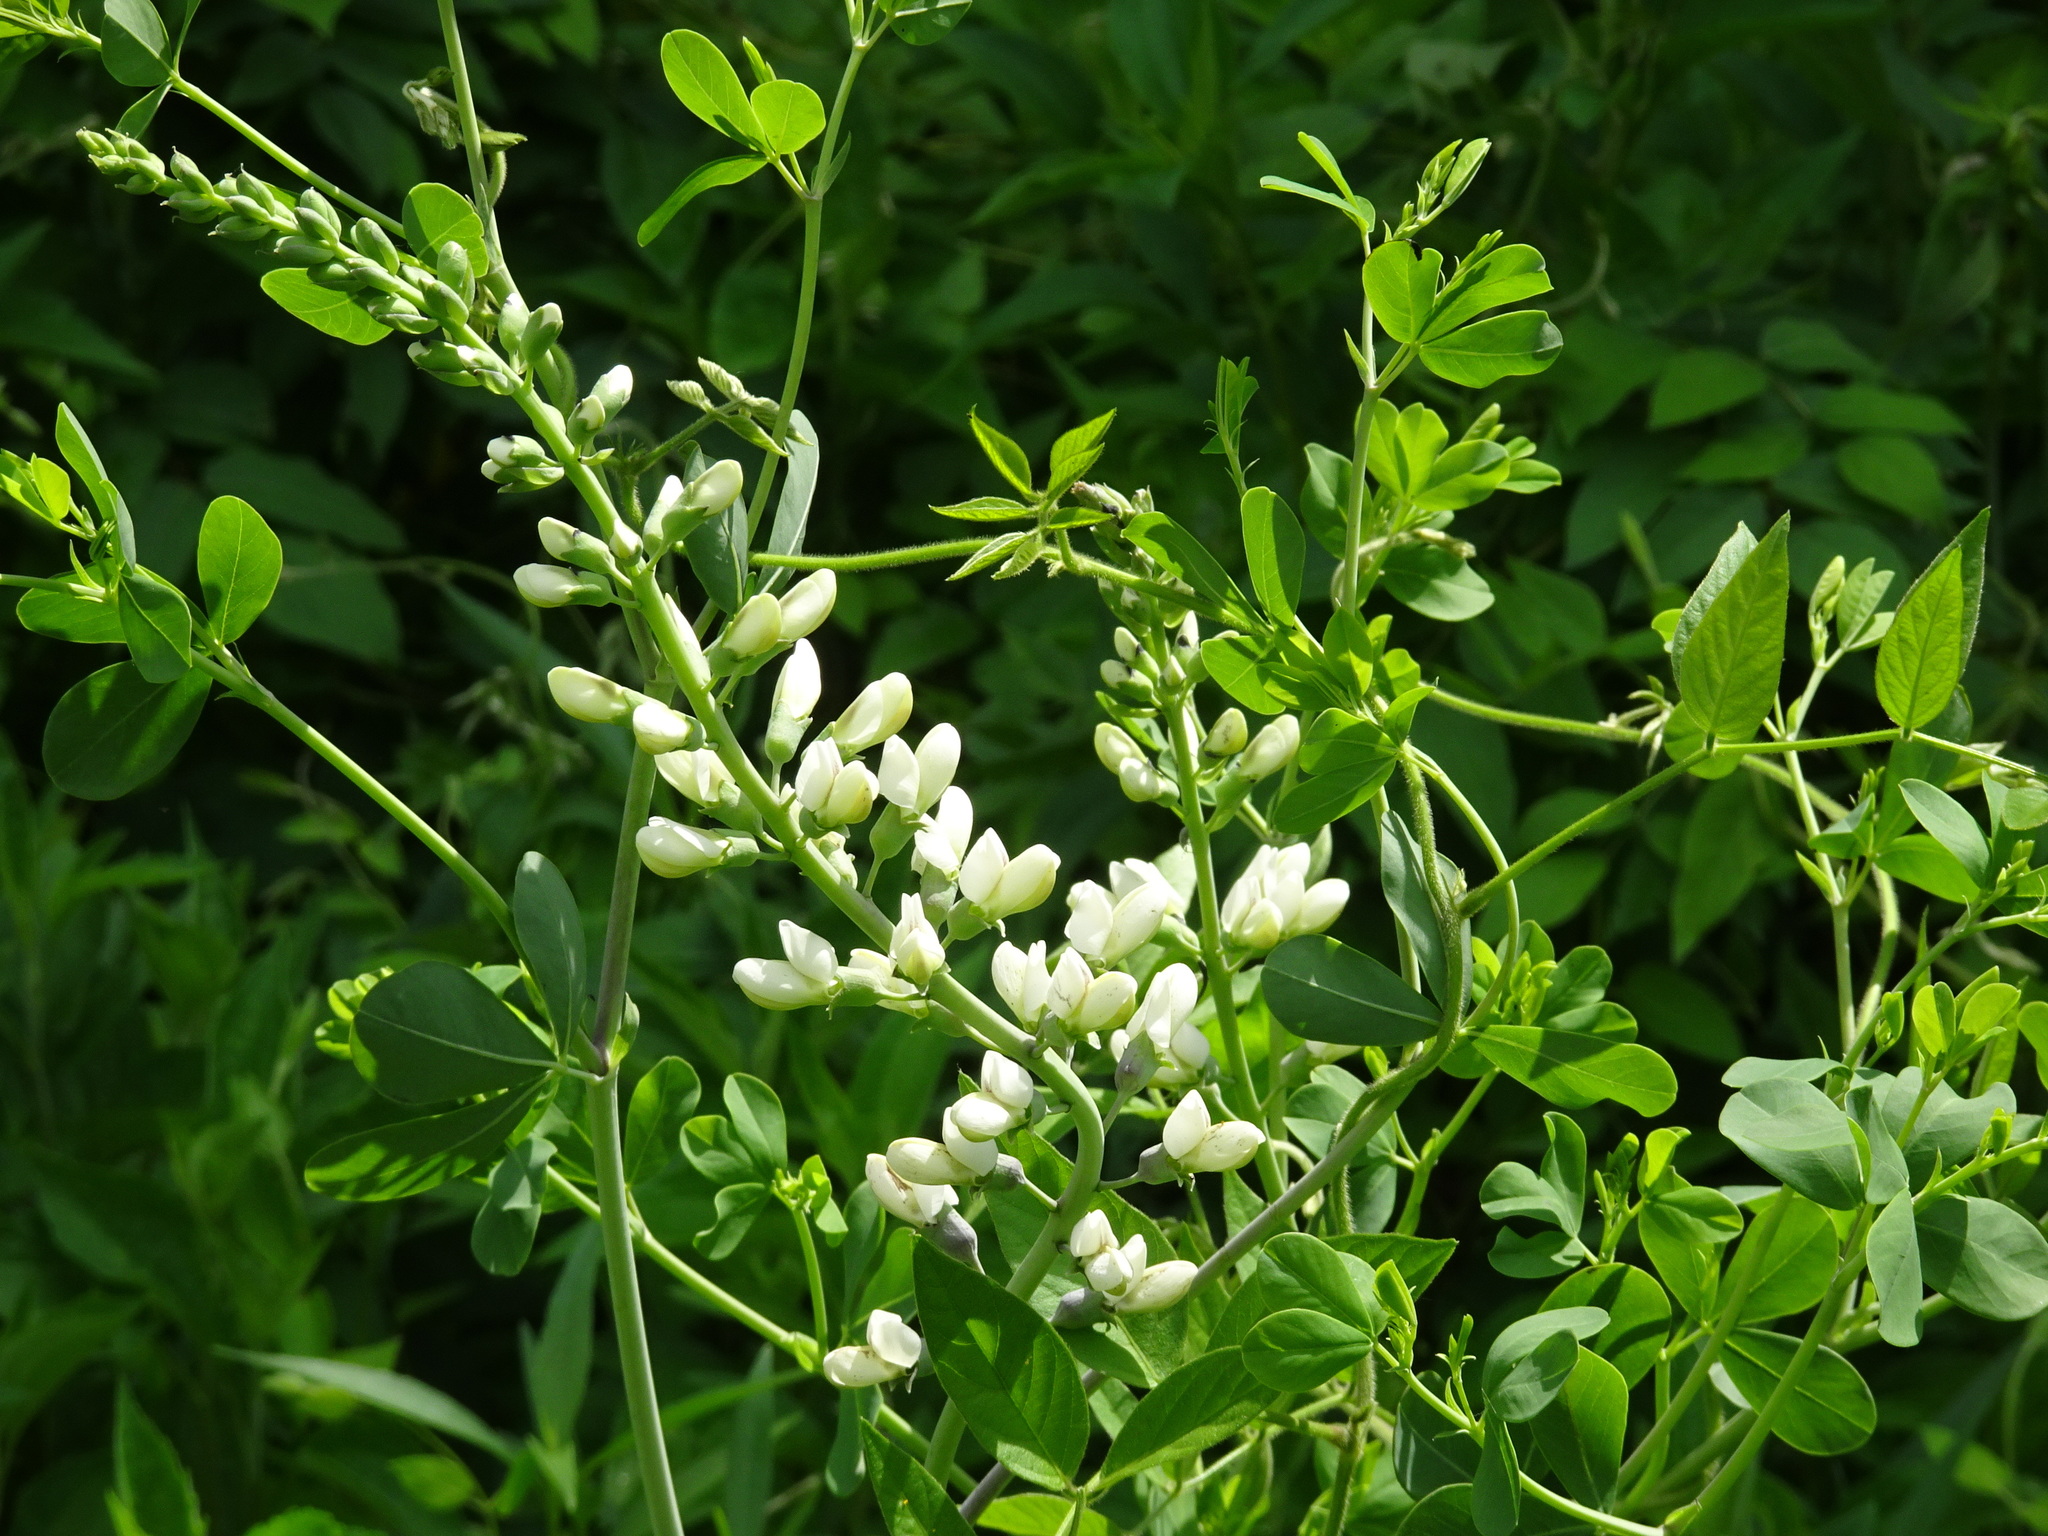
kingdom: Plantae
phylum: Tracheophyta
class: Magnoliopsida
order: Fabales
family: Fabaceae
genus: Baptisia
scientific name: Baptisia alba
